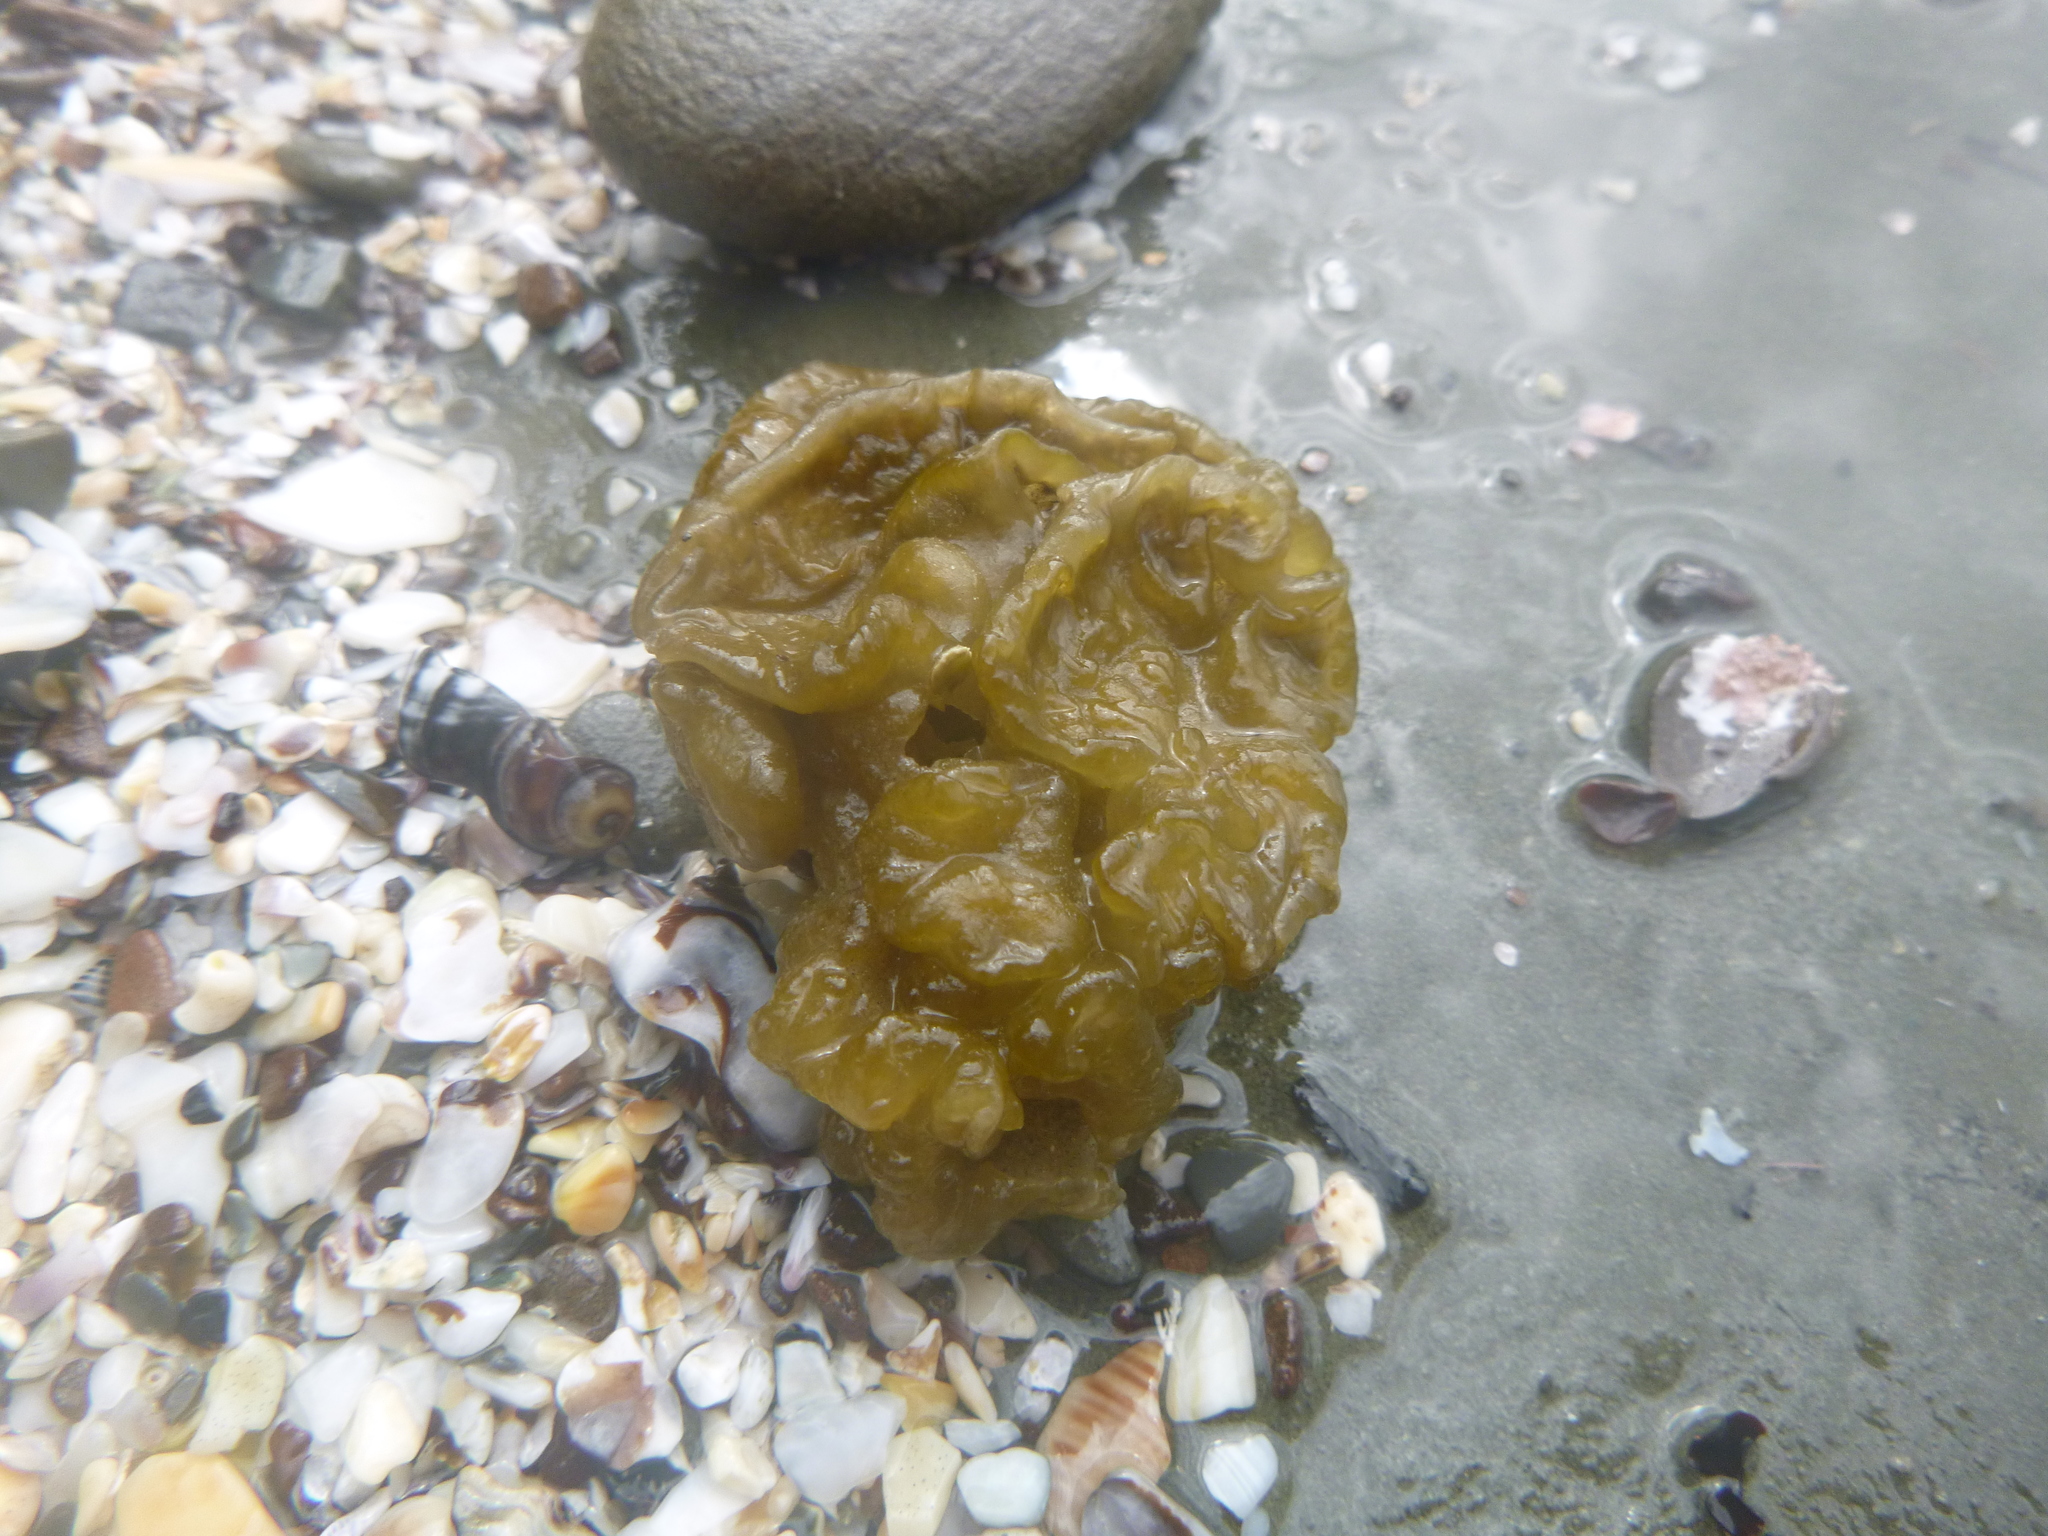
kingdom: Chromista
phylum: Ochrophyta
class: Phaeophyceae
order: Scytosiphonales
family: Scytosiphonaceae
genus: Colpomenia
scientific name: Colpomenia peregrina
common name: Oyster thief
